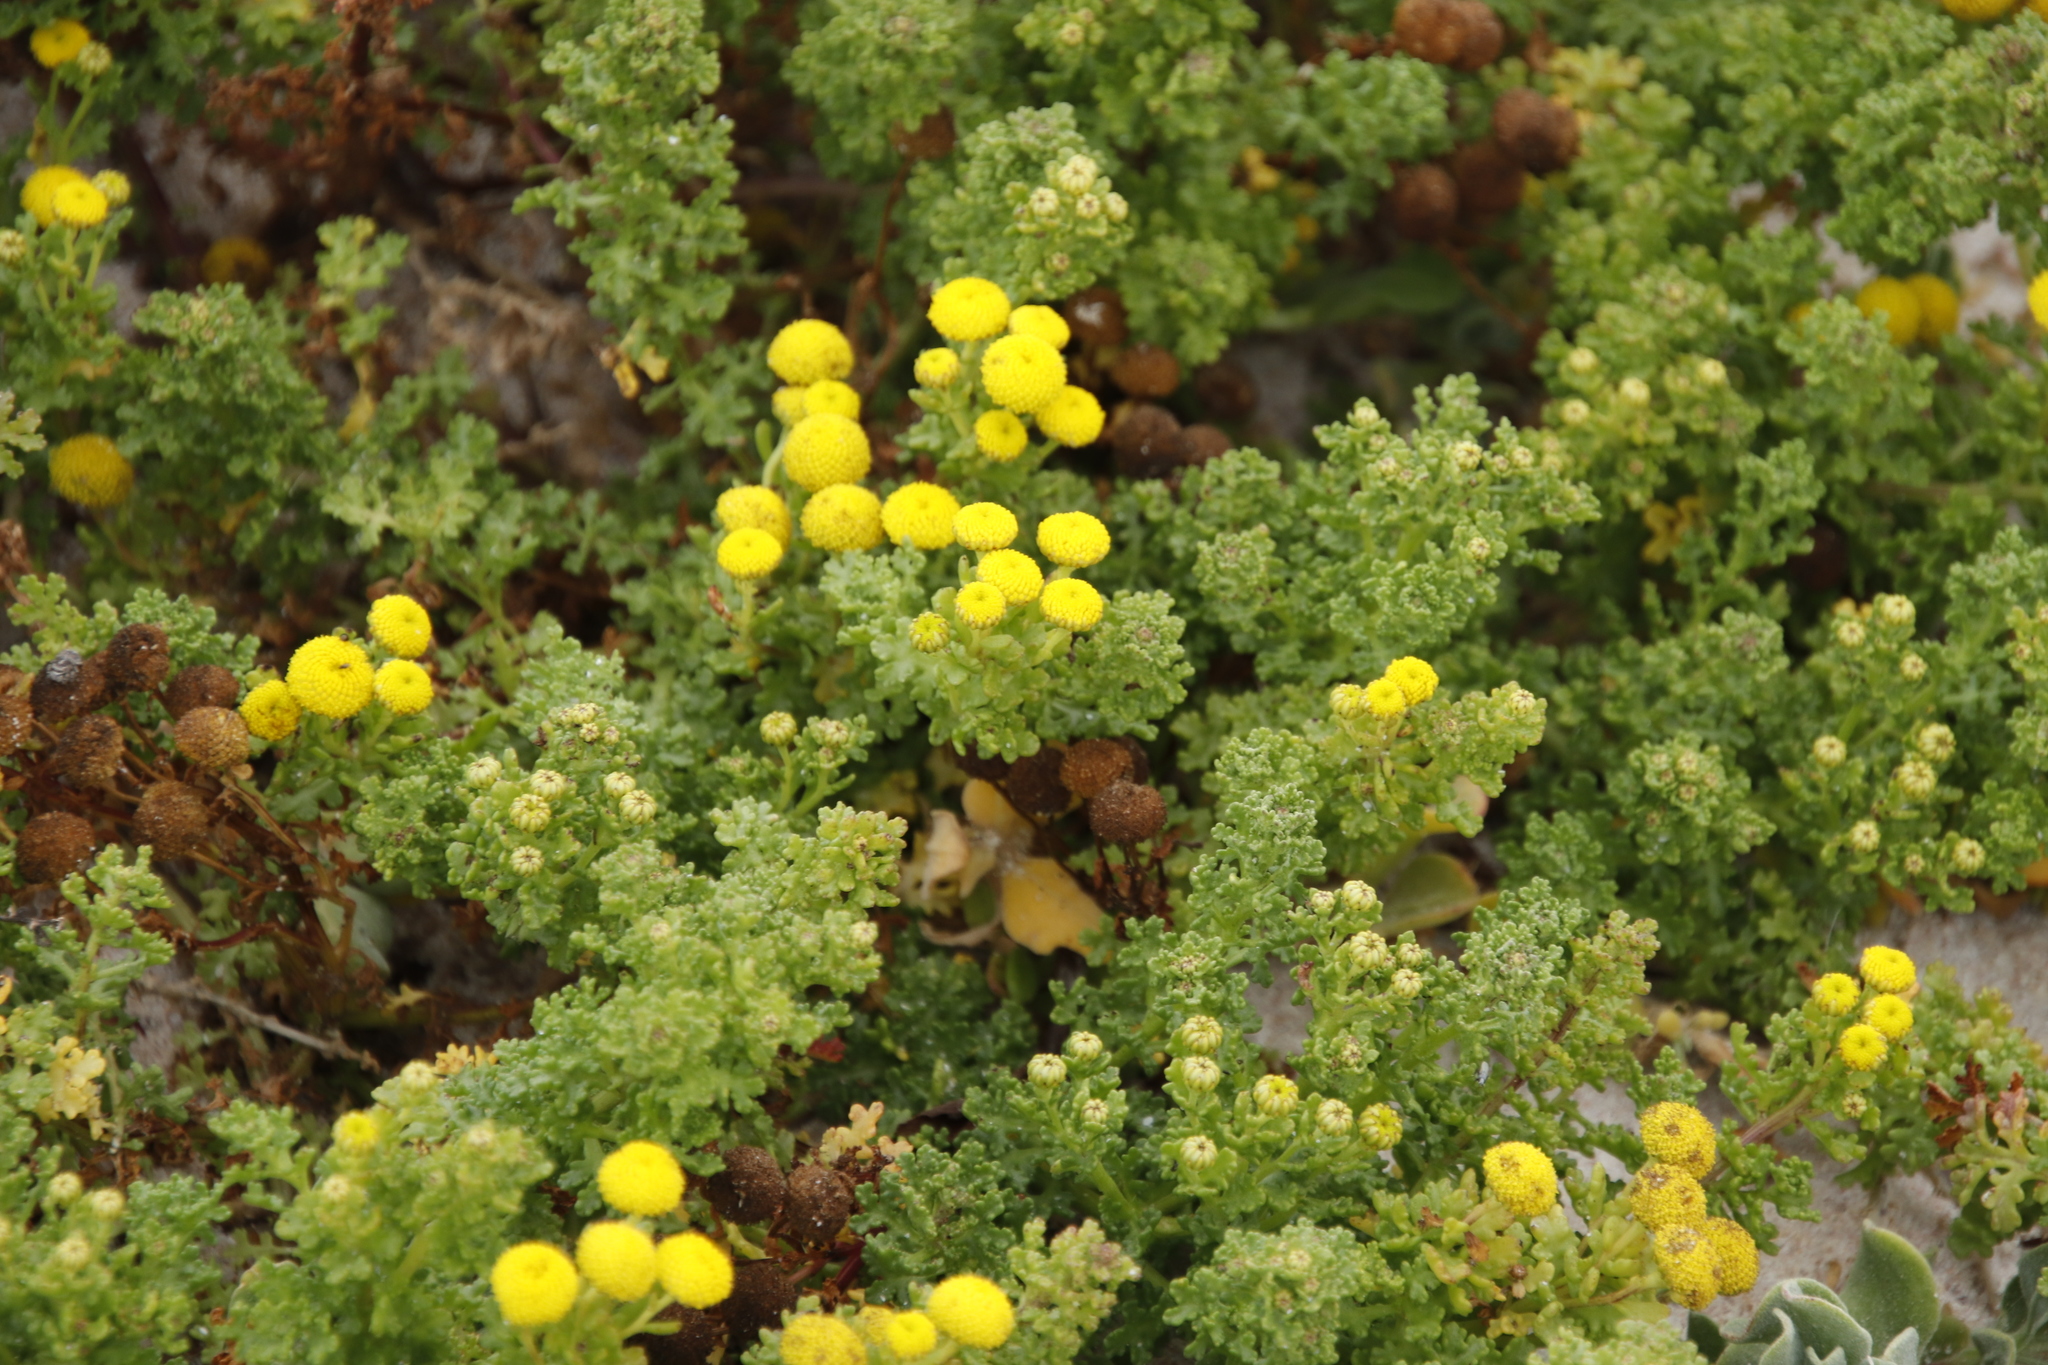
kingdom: Plantae
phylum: Tracheophyta
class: Magnoliopsida
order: Asterales
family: Asteraceae
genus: Oncosiphon
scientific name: Oncosiphon sabulosus
